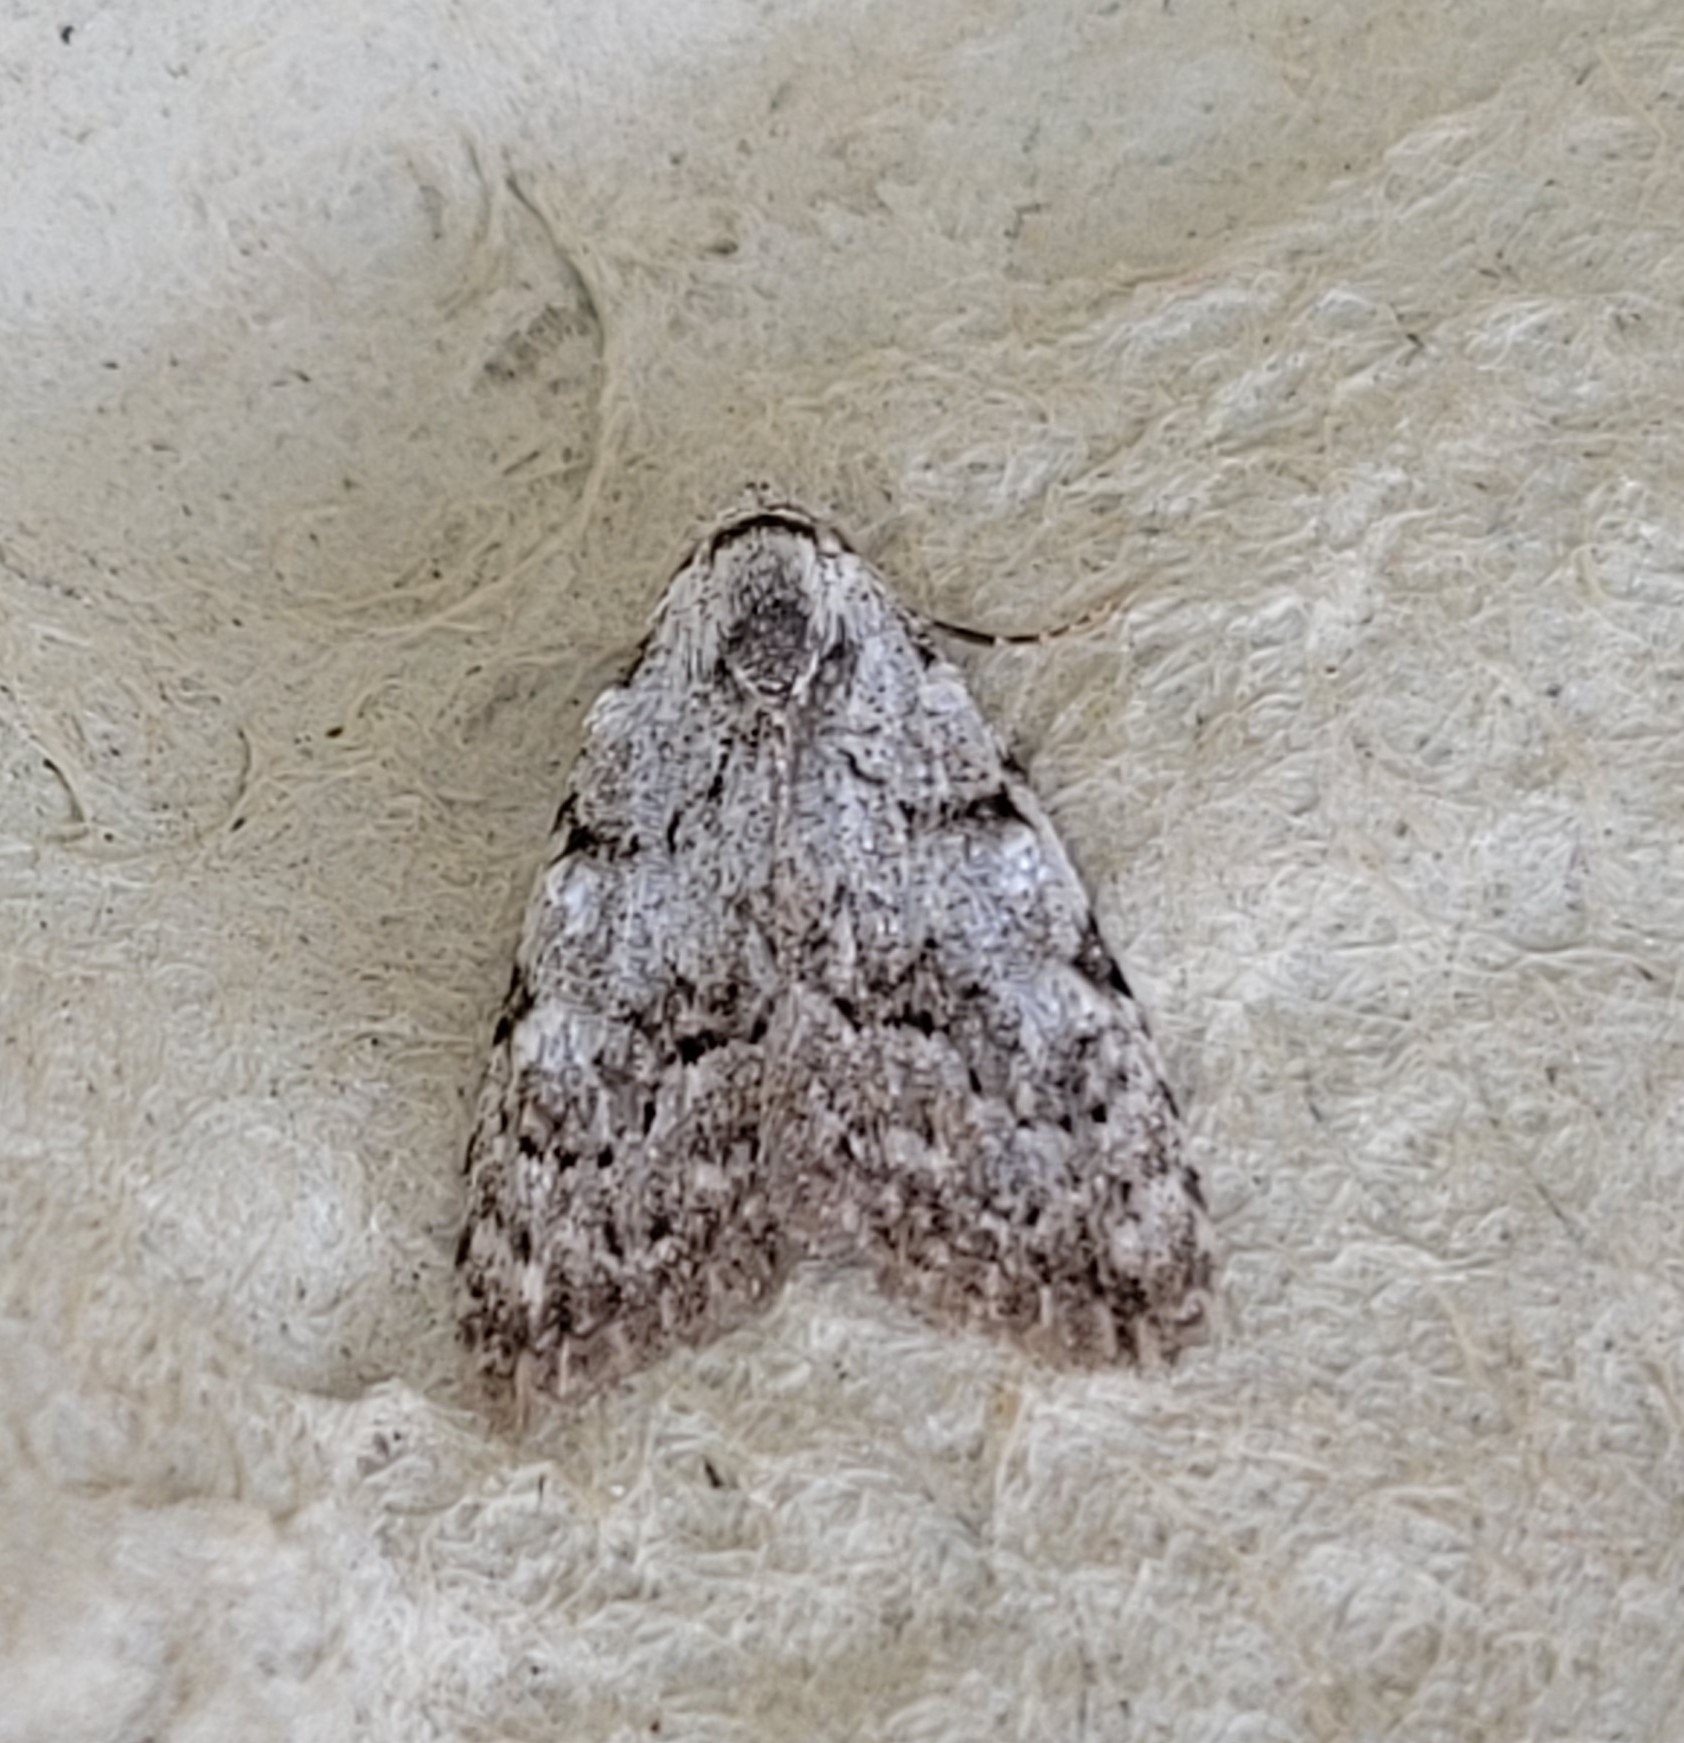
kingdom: Animalia
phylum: Arthropoda
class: Insecta
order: Lepidoptera
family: Nolidae
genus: Nola
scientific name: Nola confusalis
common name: Least black arches
